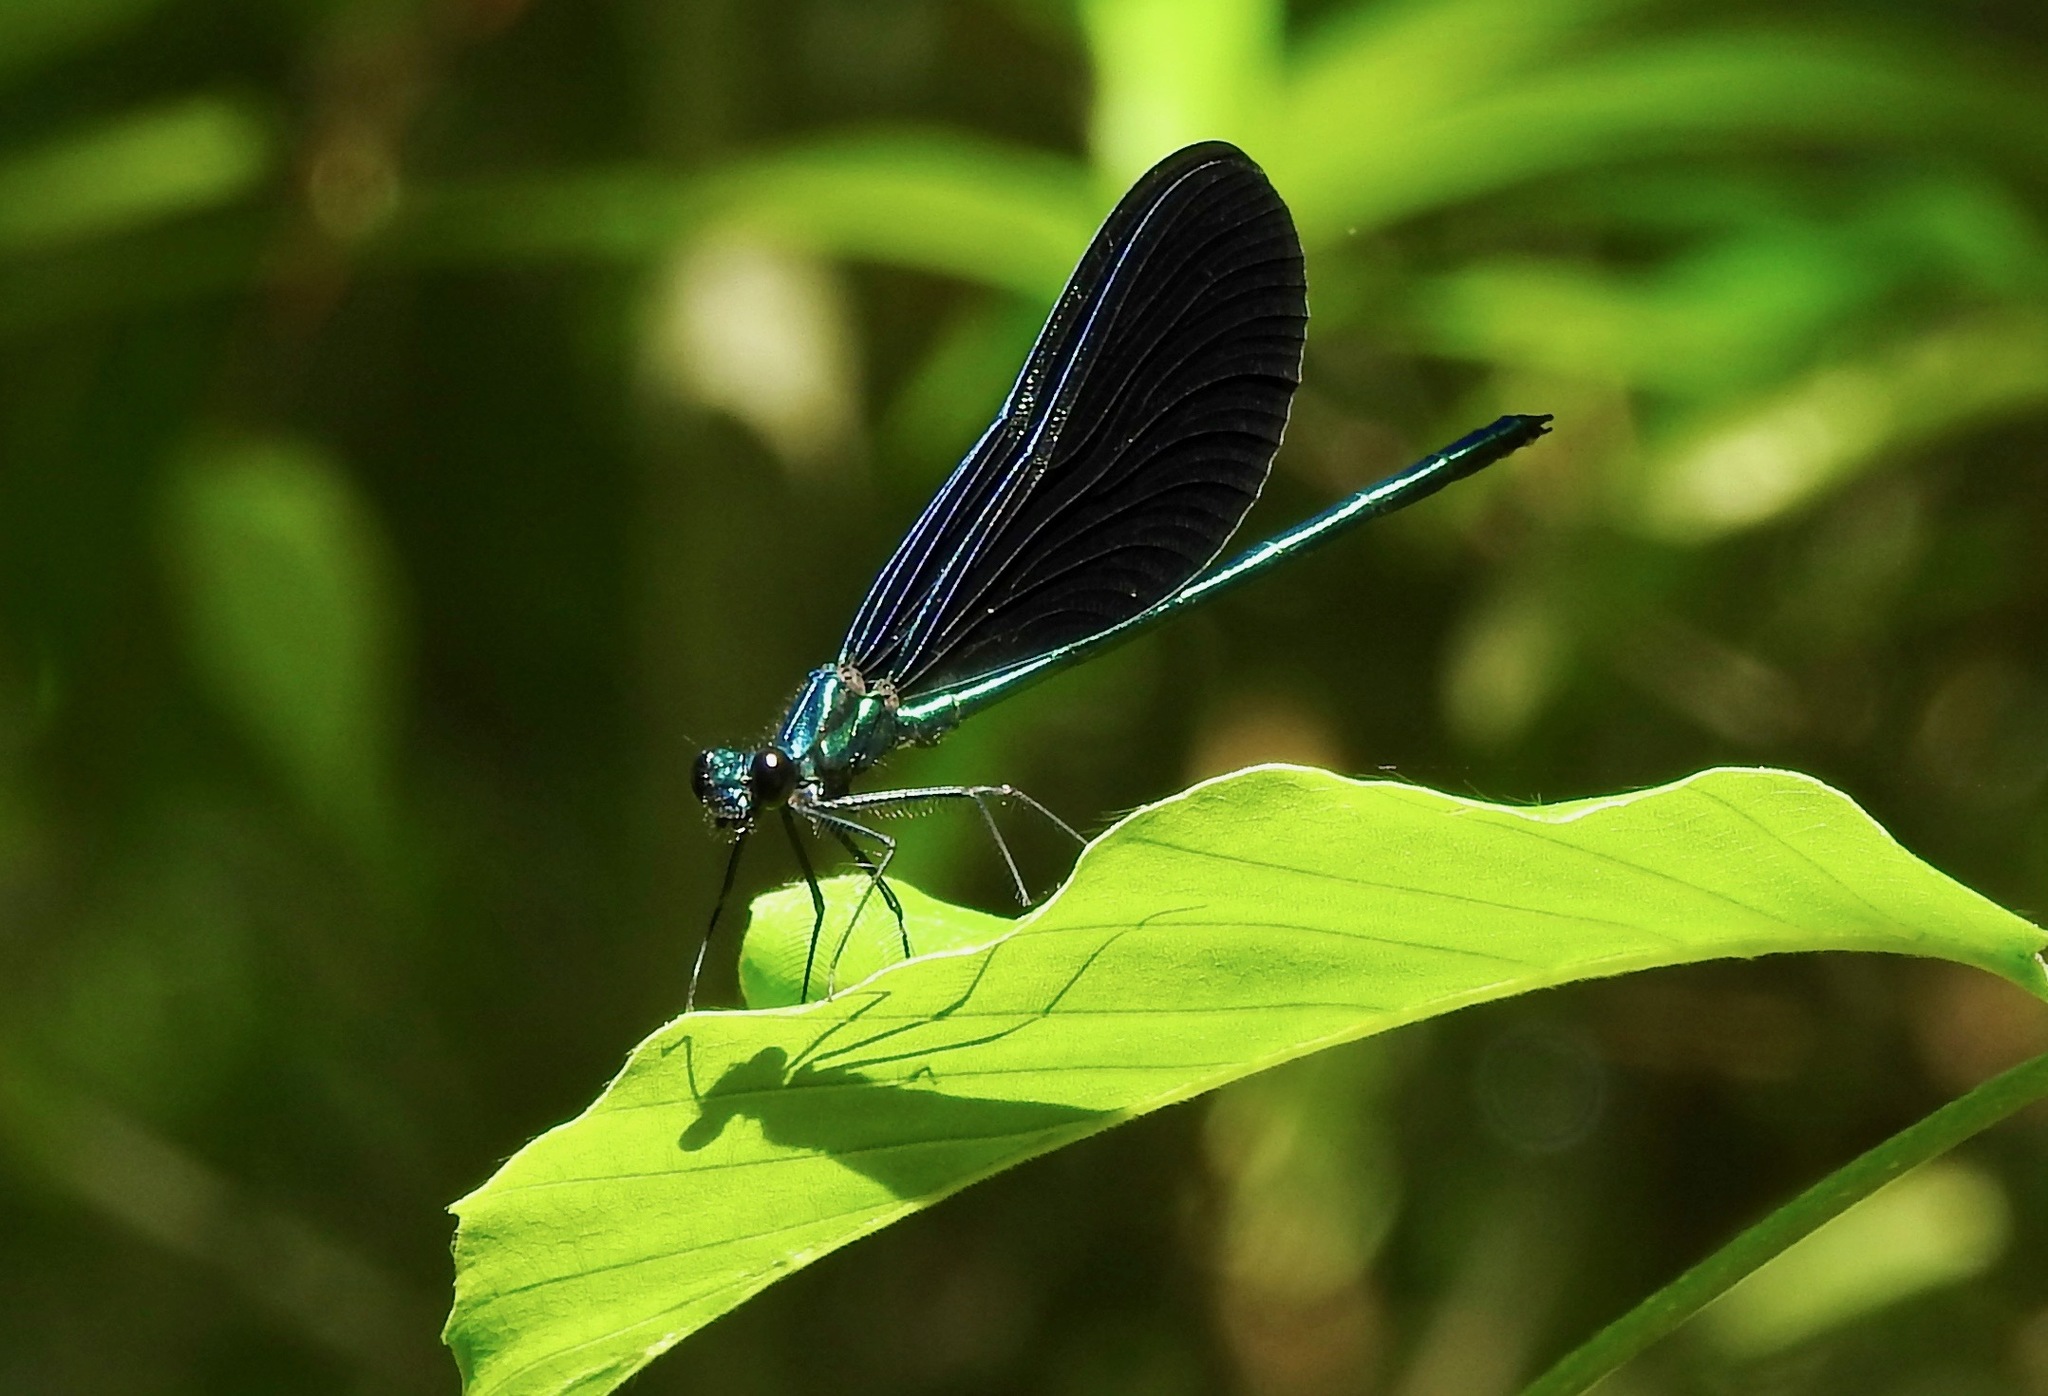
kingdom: Animalia
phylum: Arthropoda
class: Insecta
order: Odonata
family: Calopterygidae
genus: Calopteryx
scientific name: Calopteryx maculata
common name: Ebony jewelwing
